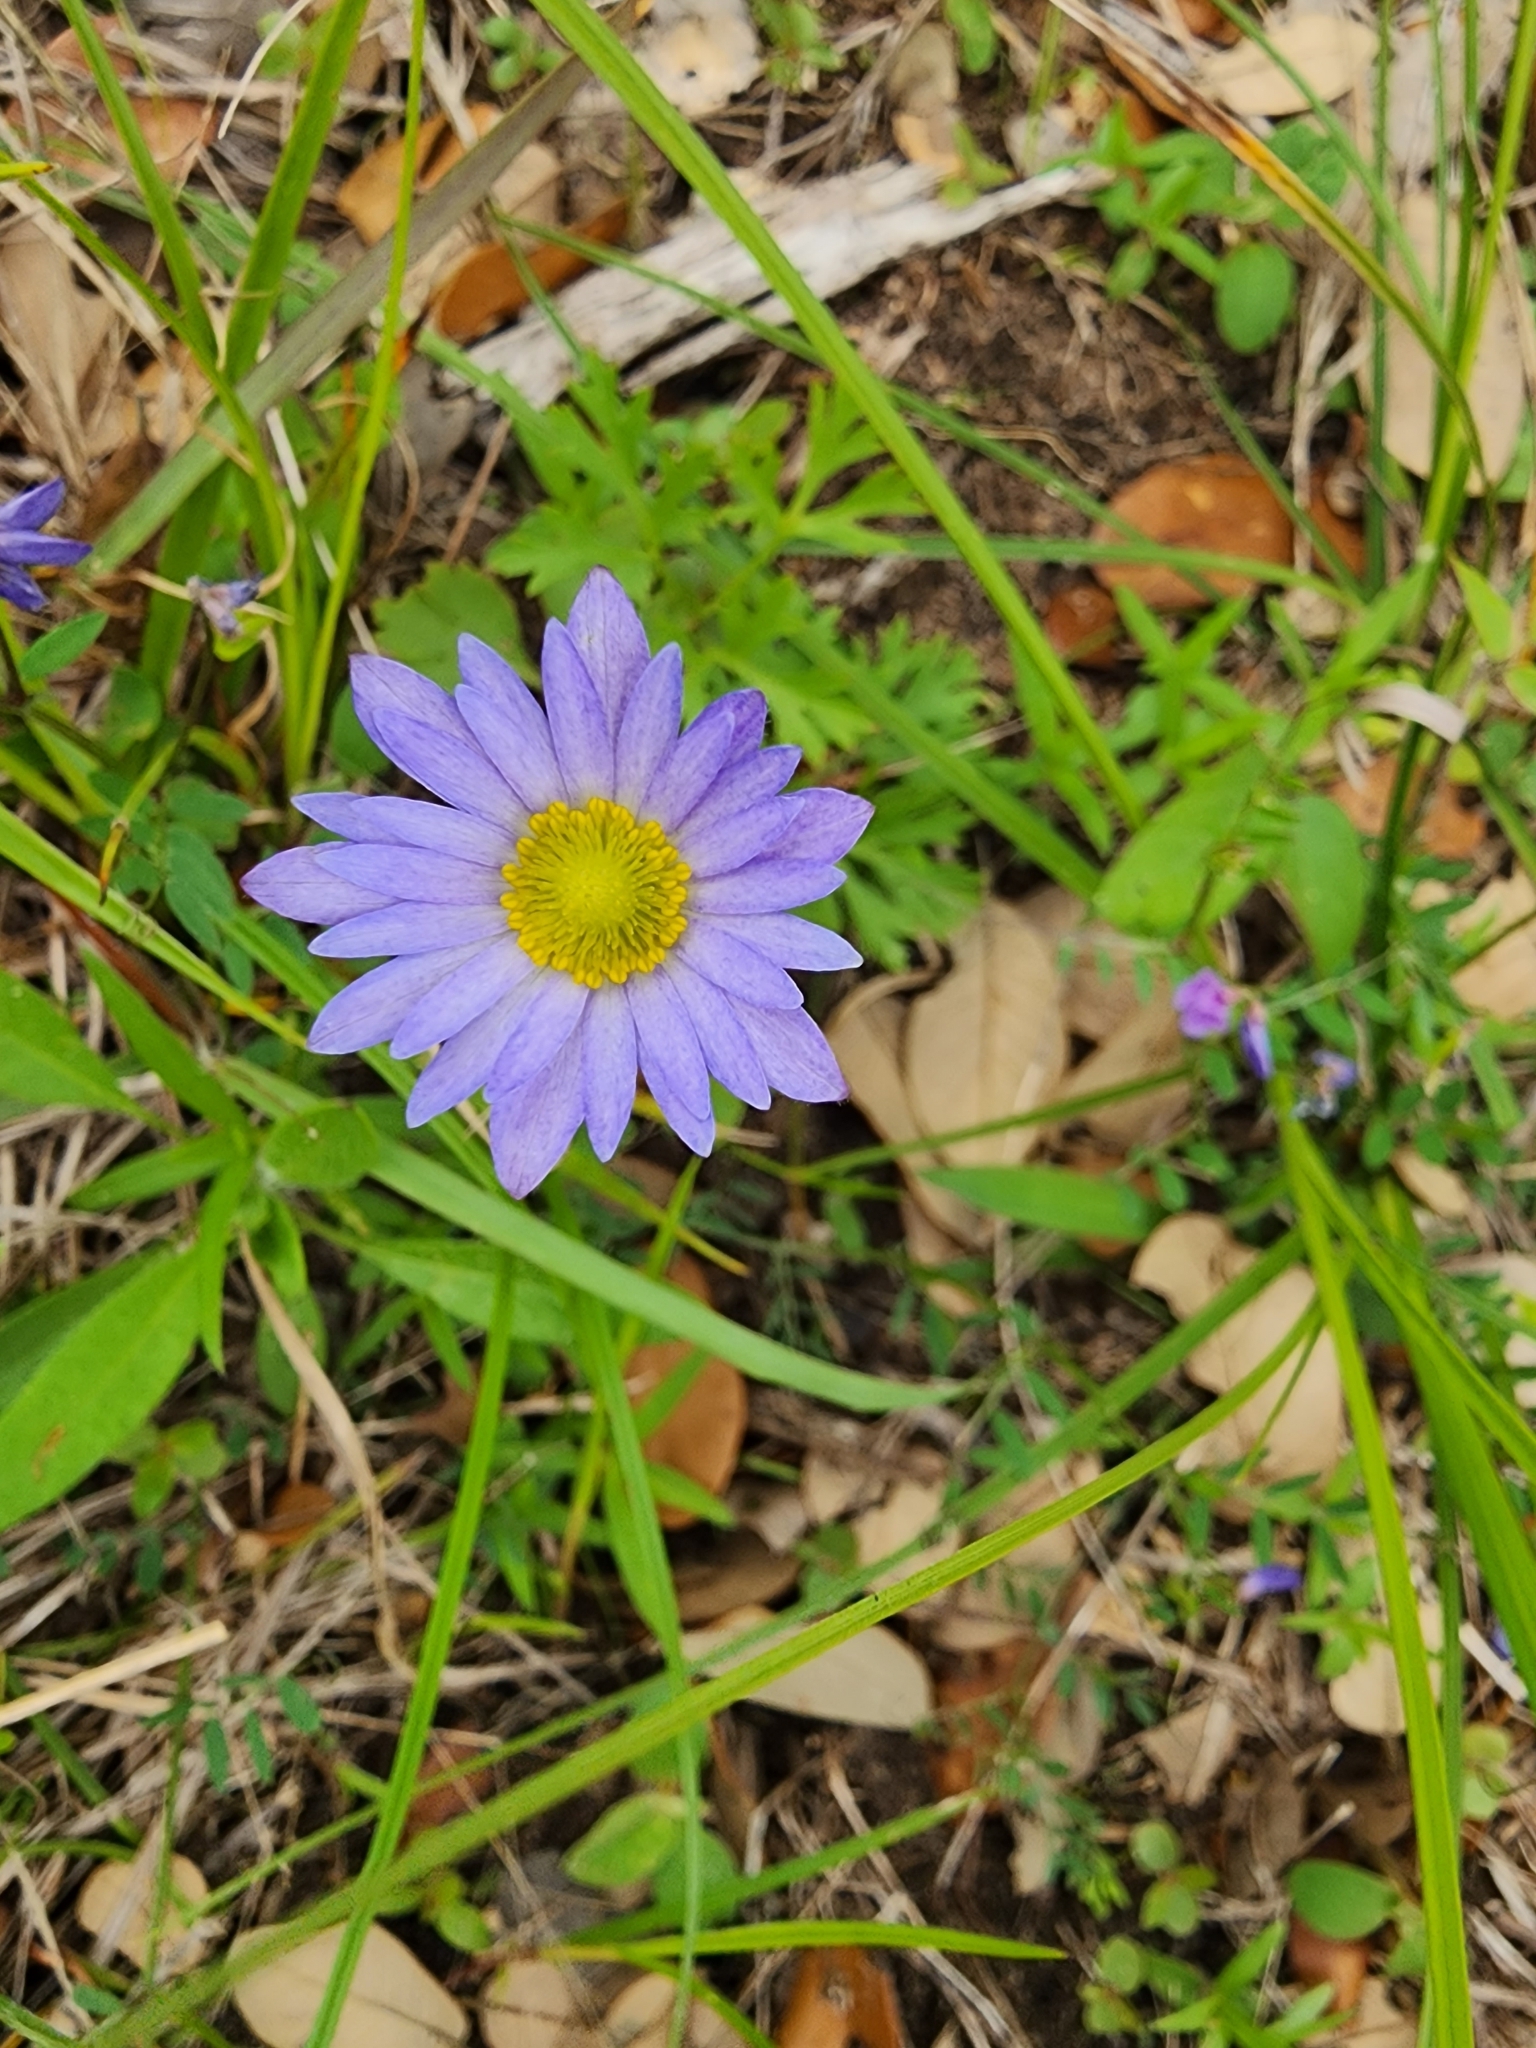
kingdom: Plantae
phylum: Tracheophyta
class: Magnoliopsida
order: Ranunculales
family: Ranunculaceae
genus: Anemone
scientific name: Anemone caroliniana
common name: Carolina anemone
